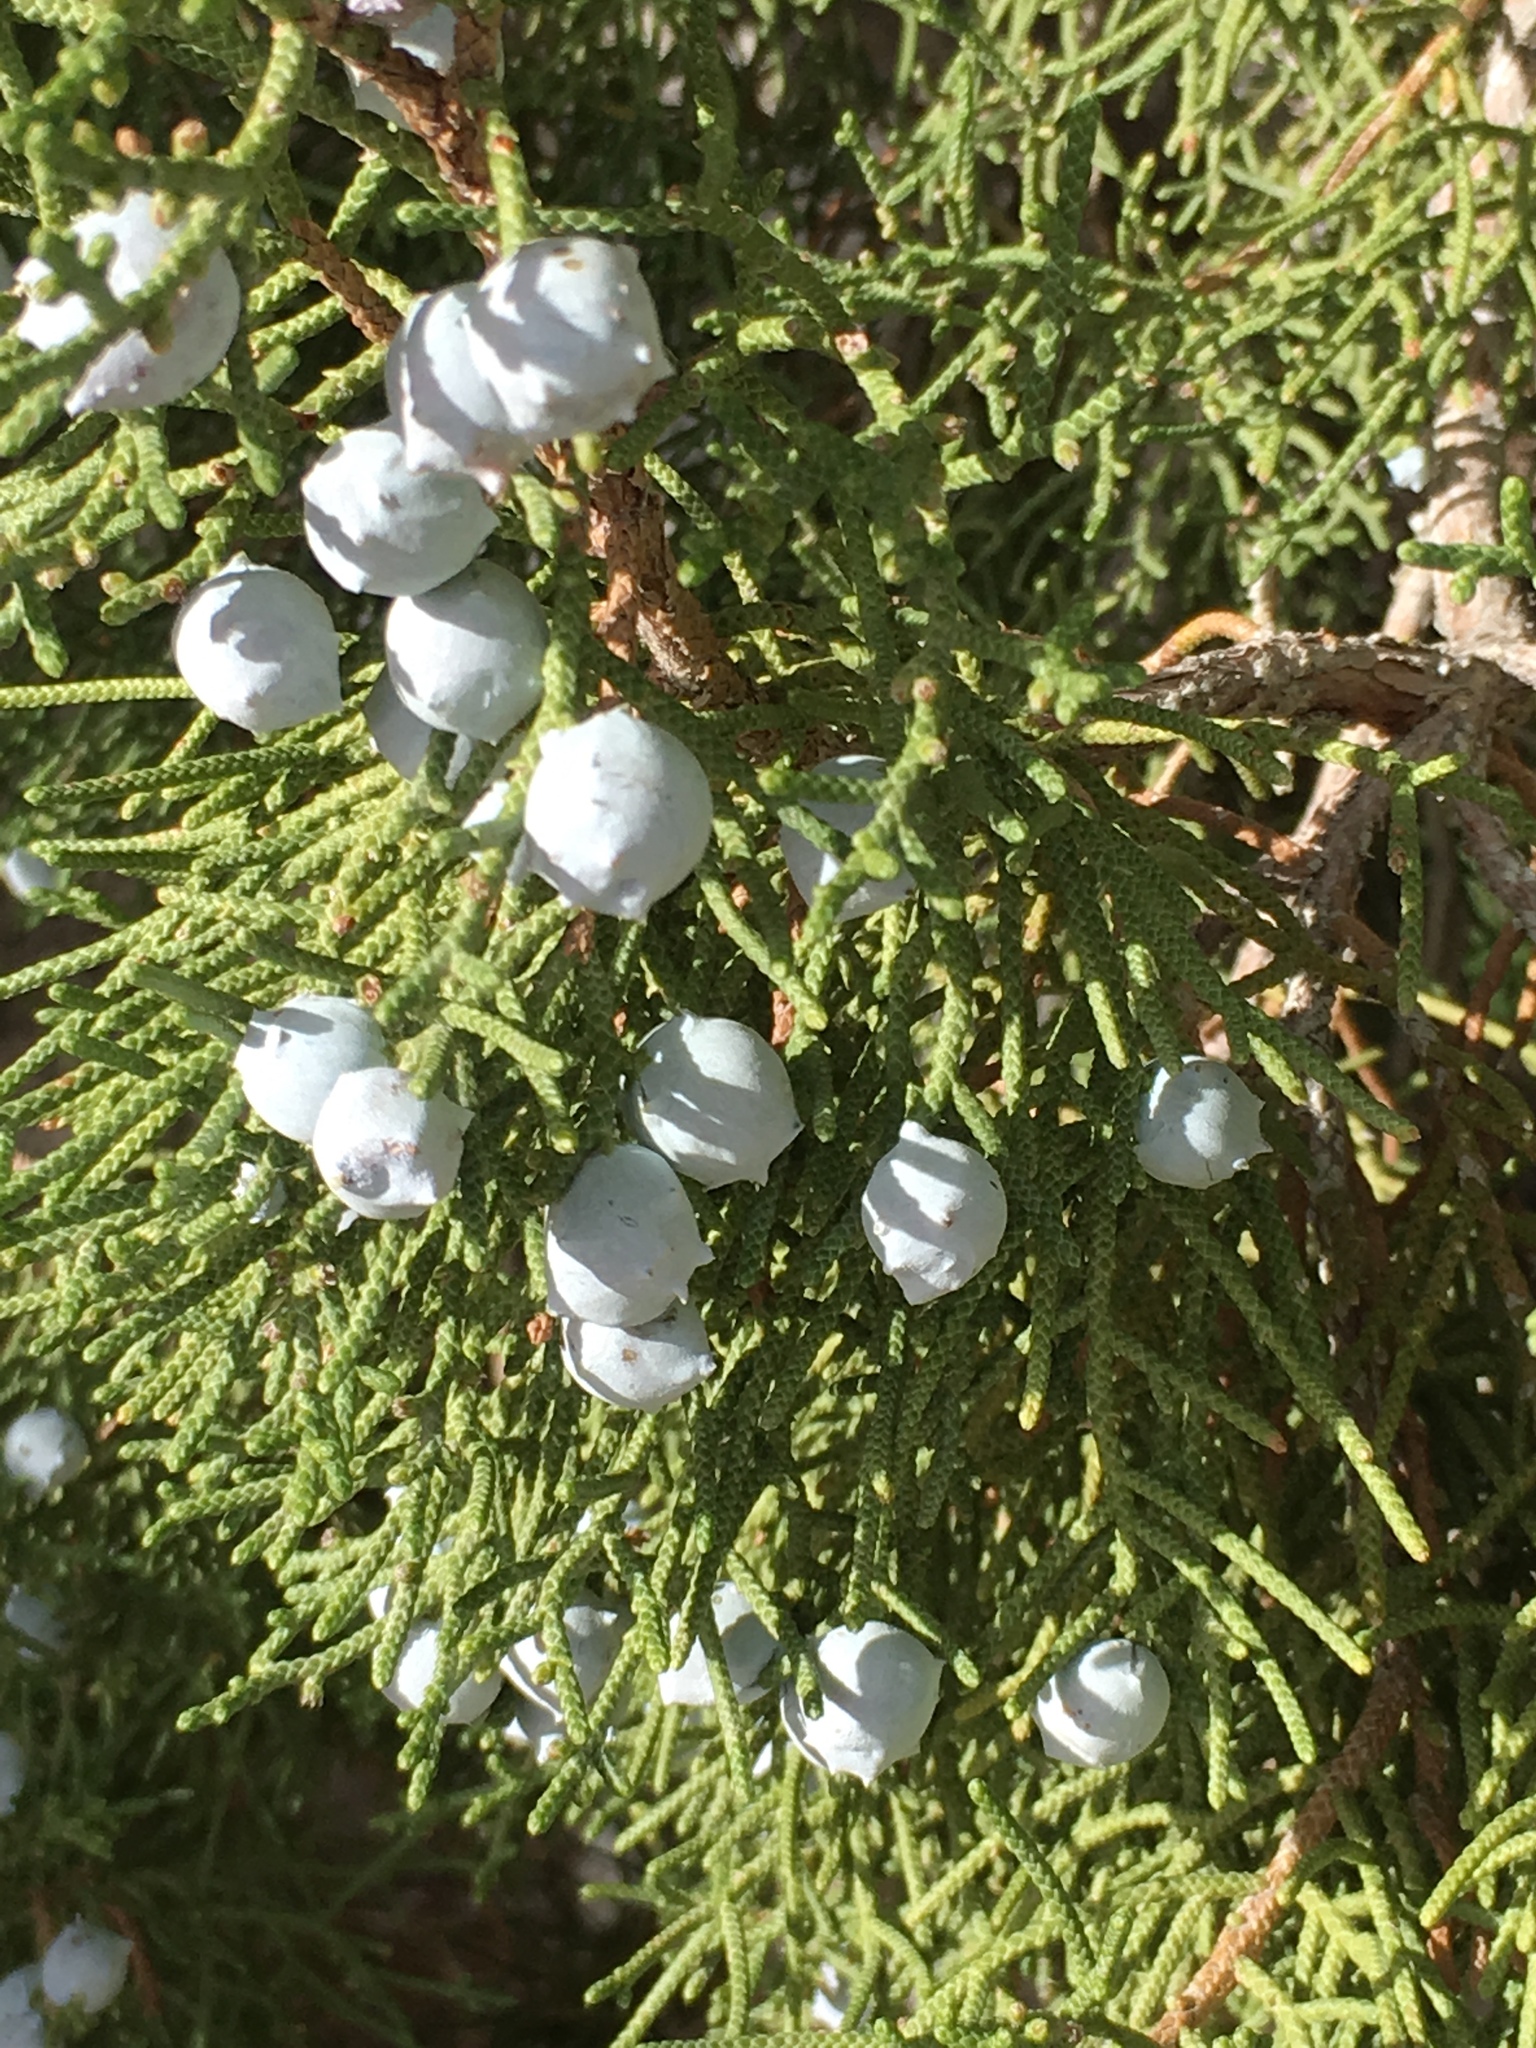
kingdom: Plantae
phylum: Tracheophyta
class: Pinopsida
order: Pinales
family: Cupressaceae
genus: Juniperus
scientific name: Juniperus californica
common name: California juniper
